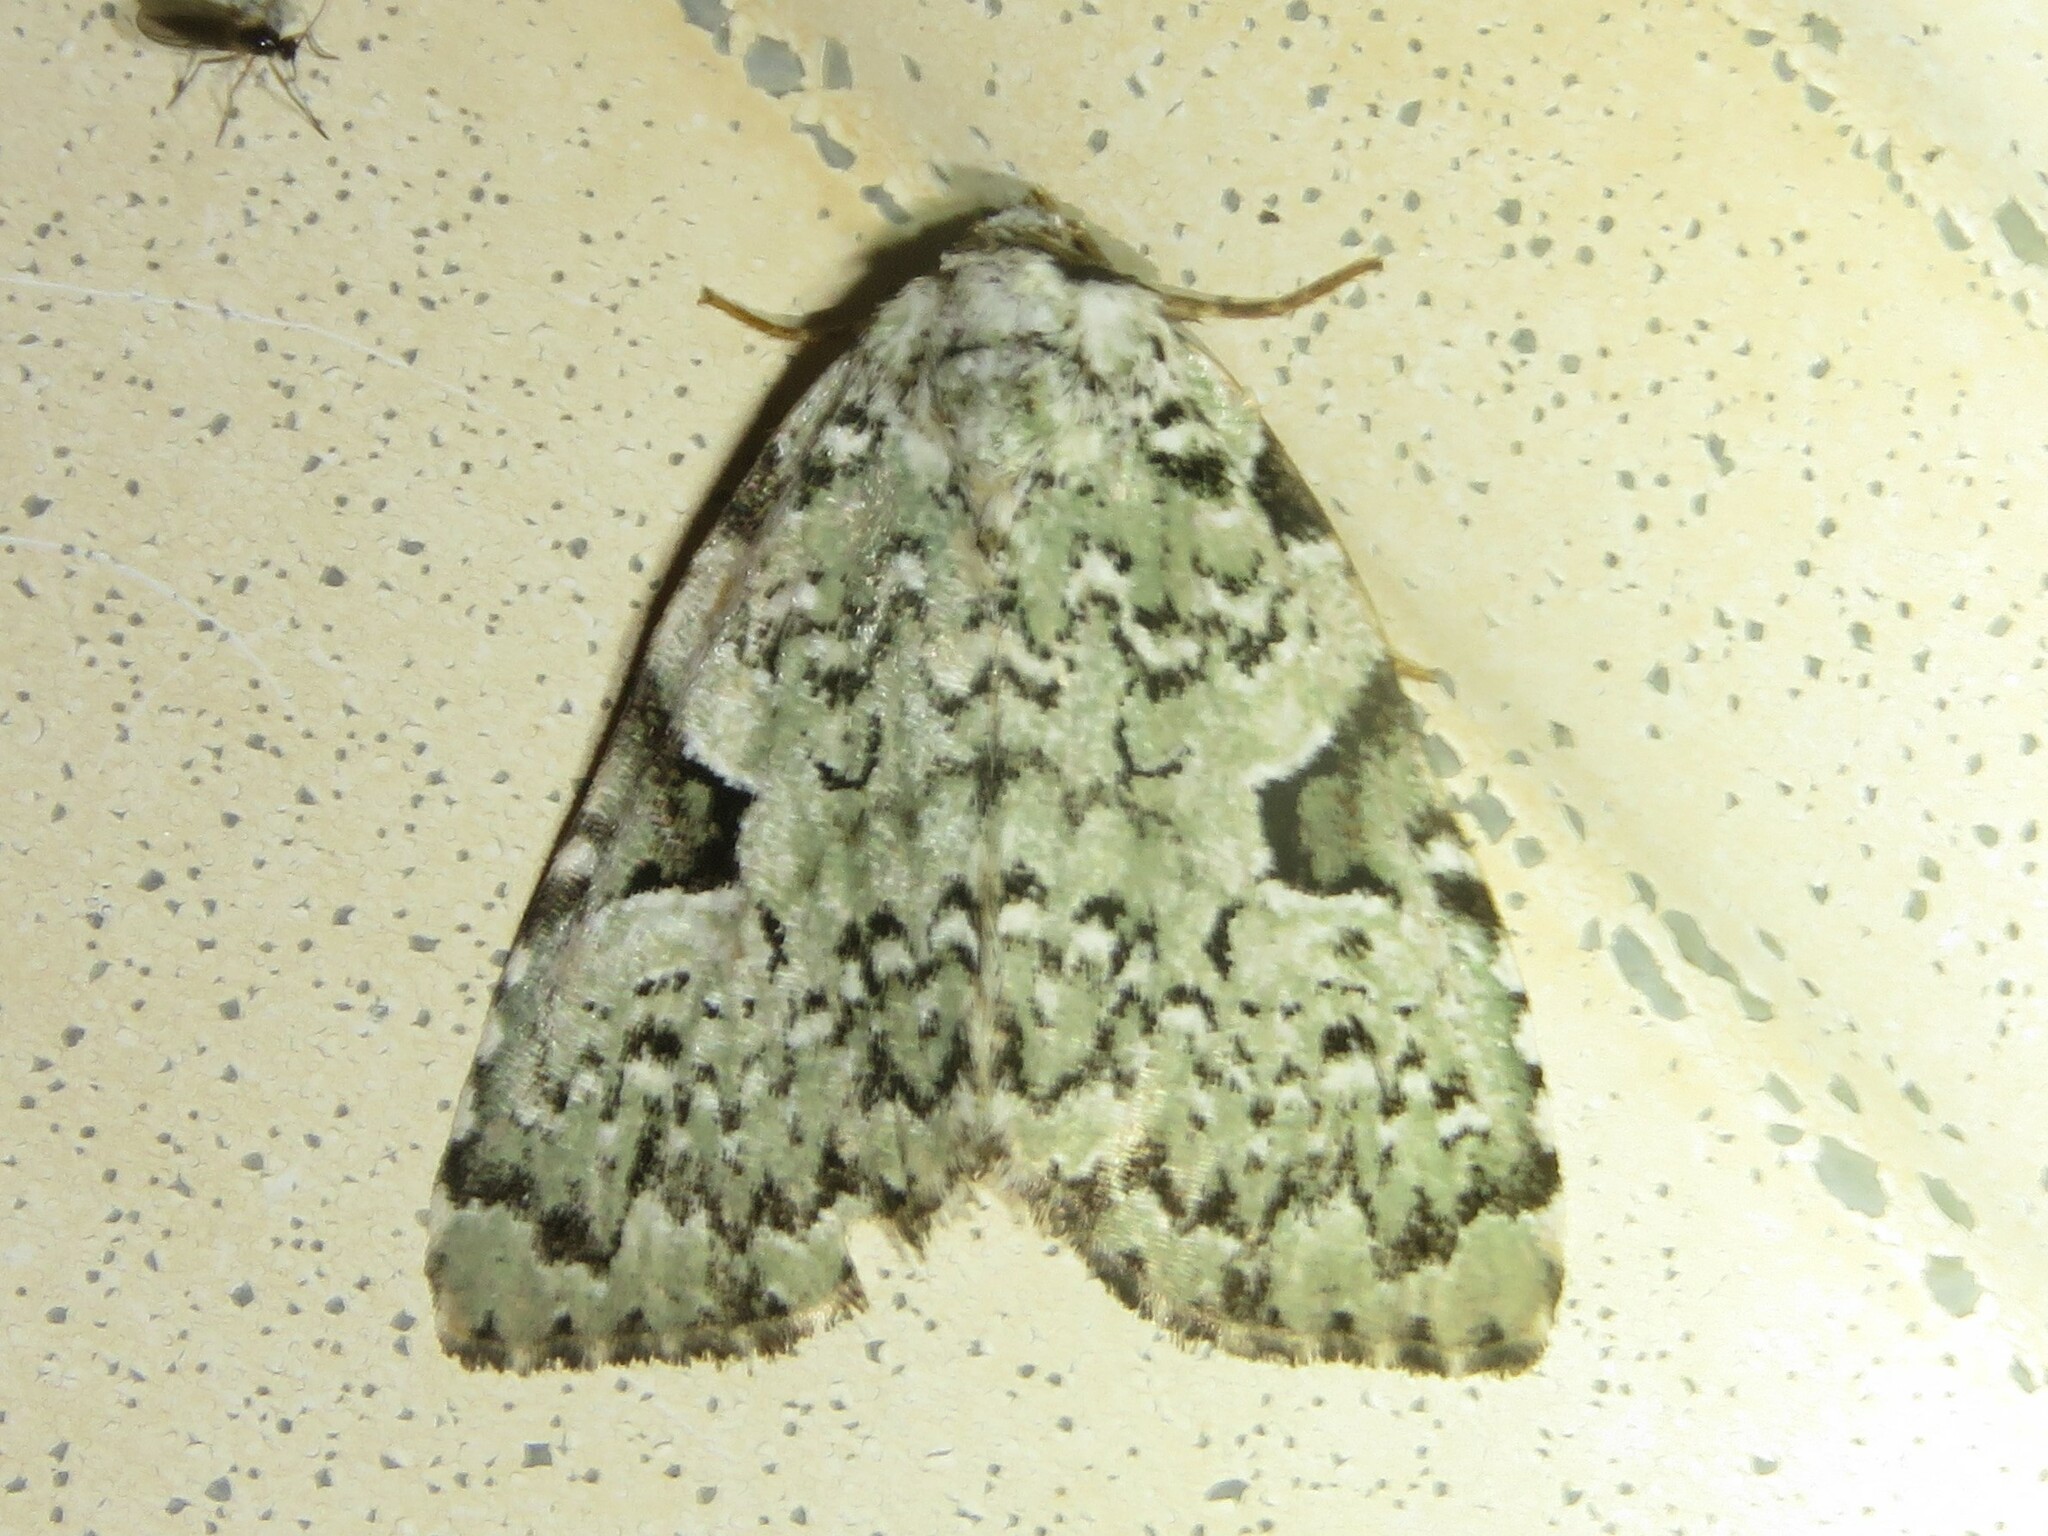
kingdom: Animalia
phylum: Arthropoda
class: Insecta
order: Lepidoptera
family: Noctuidae
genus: Leuconycta
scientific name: Leuconycta diphteroides
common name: Green leuconycta moth
